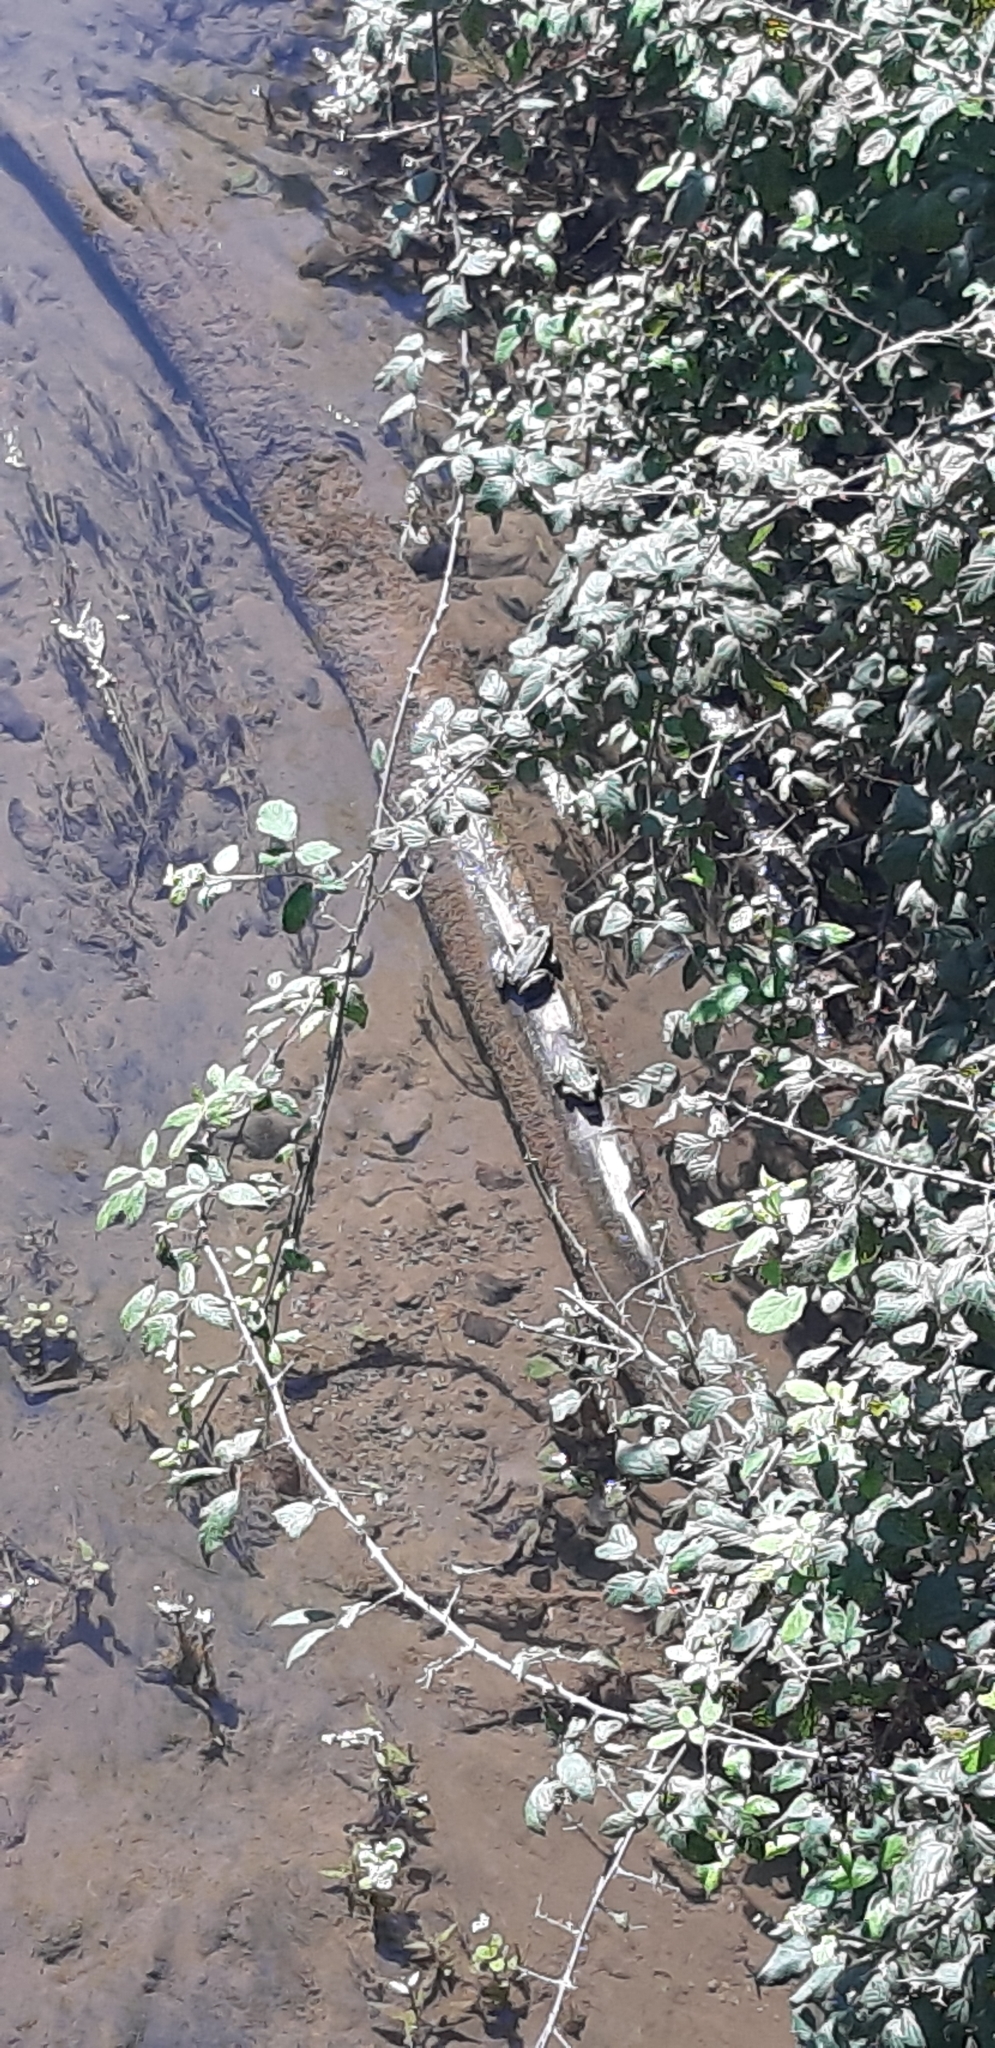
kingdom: Animalia
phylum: Chordata
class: Amphibia
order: Anura
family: Ranidae
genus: Pelophylax
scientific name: Pelophylax
